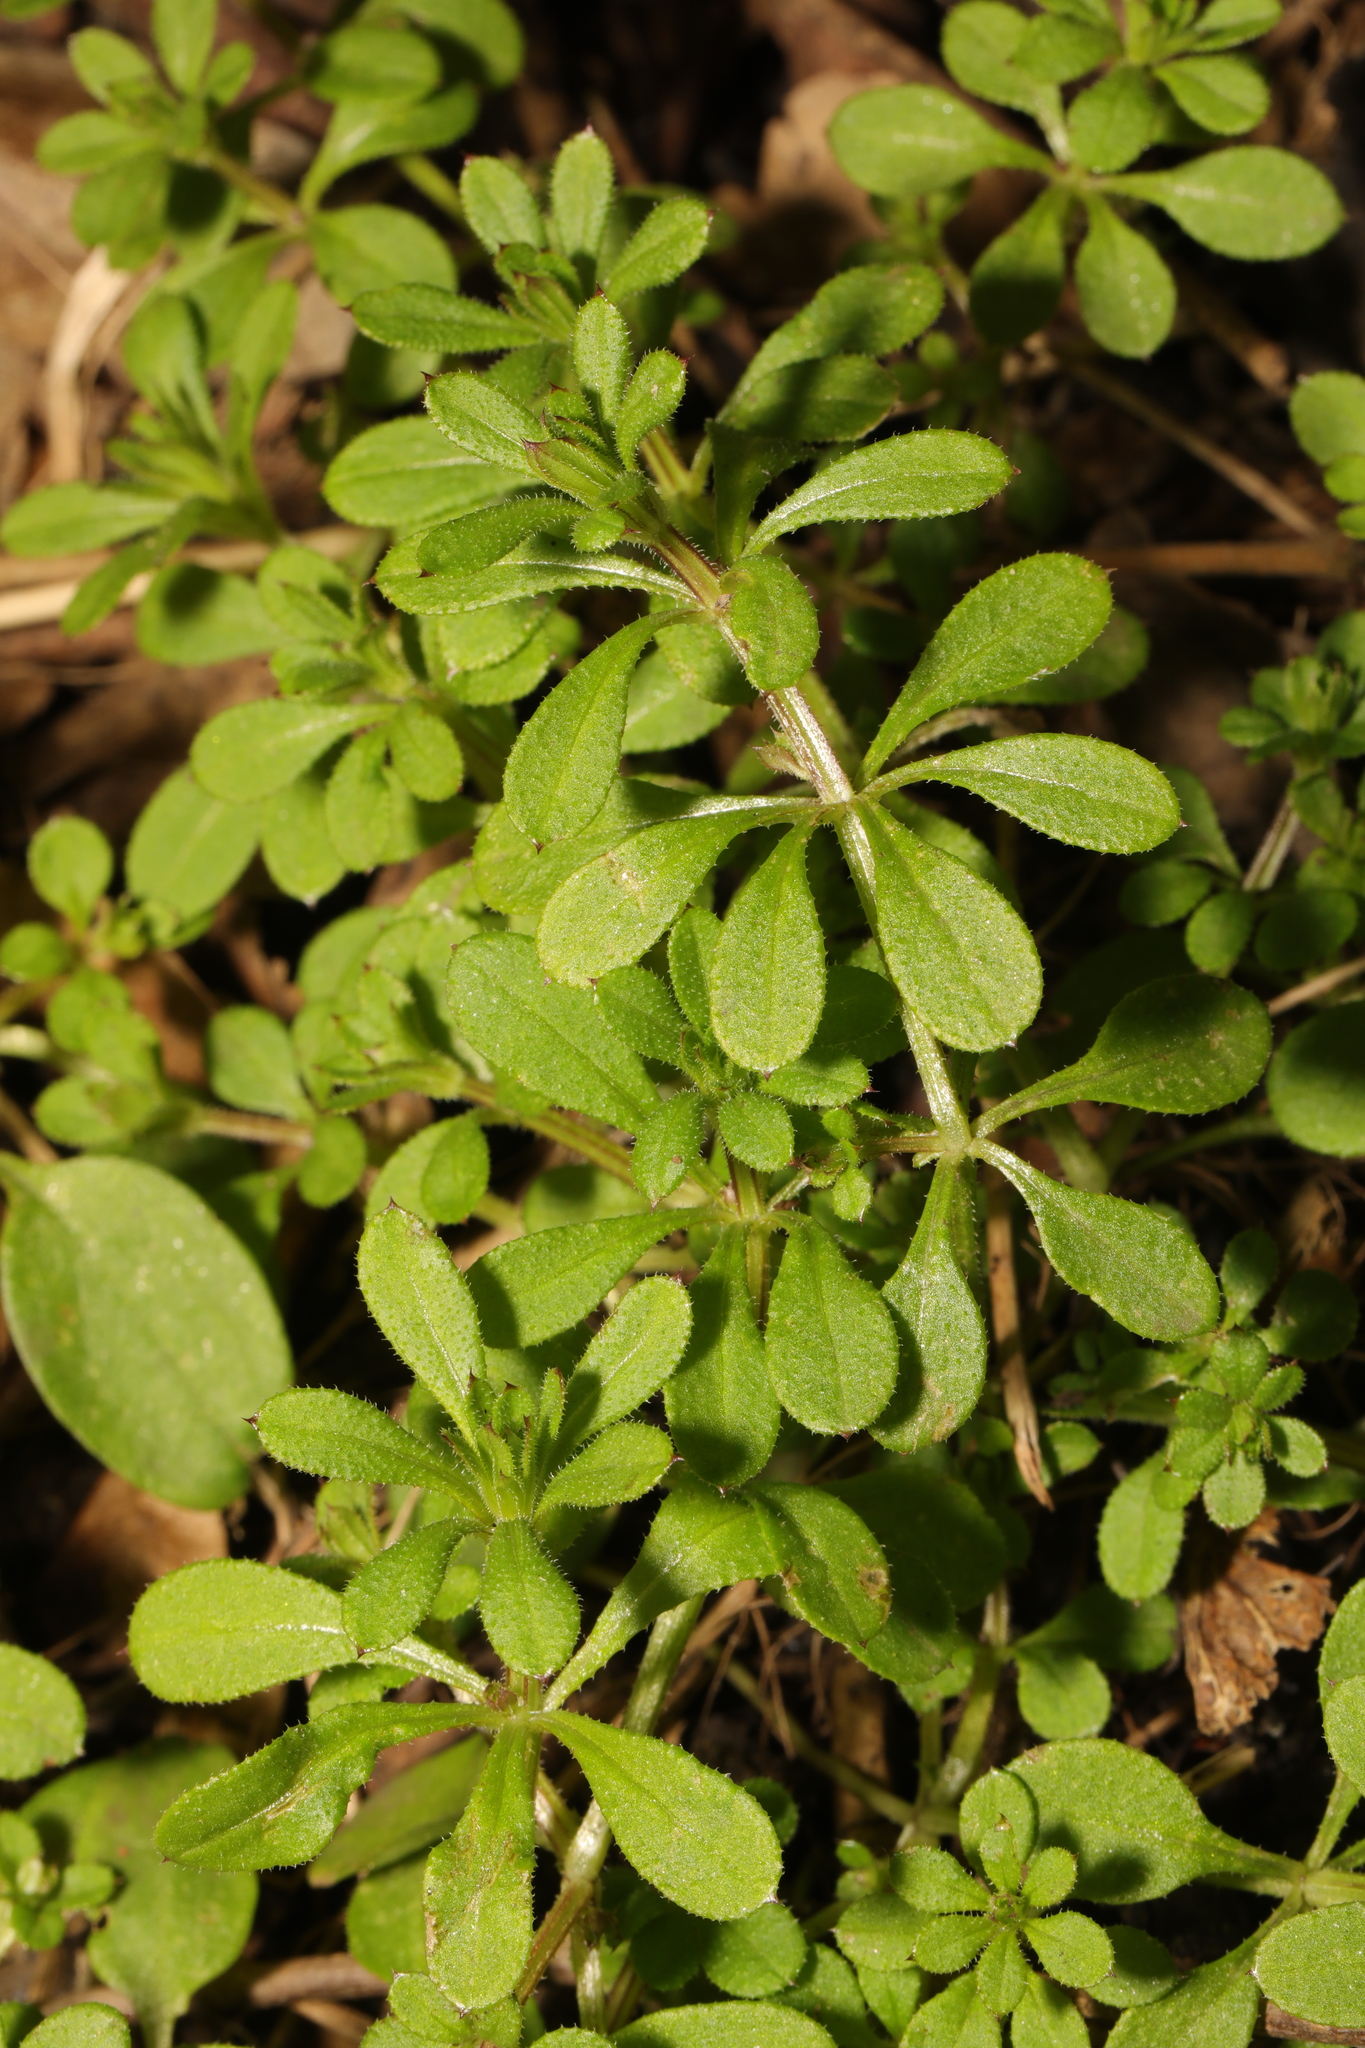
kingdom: Plantae
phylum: Tracheophyta
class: Magnoliopsida
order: Gentianales
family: Rubiaceae
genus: Galium
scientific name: Galium aparine
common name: Cleavers
